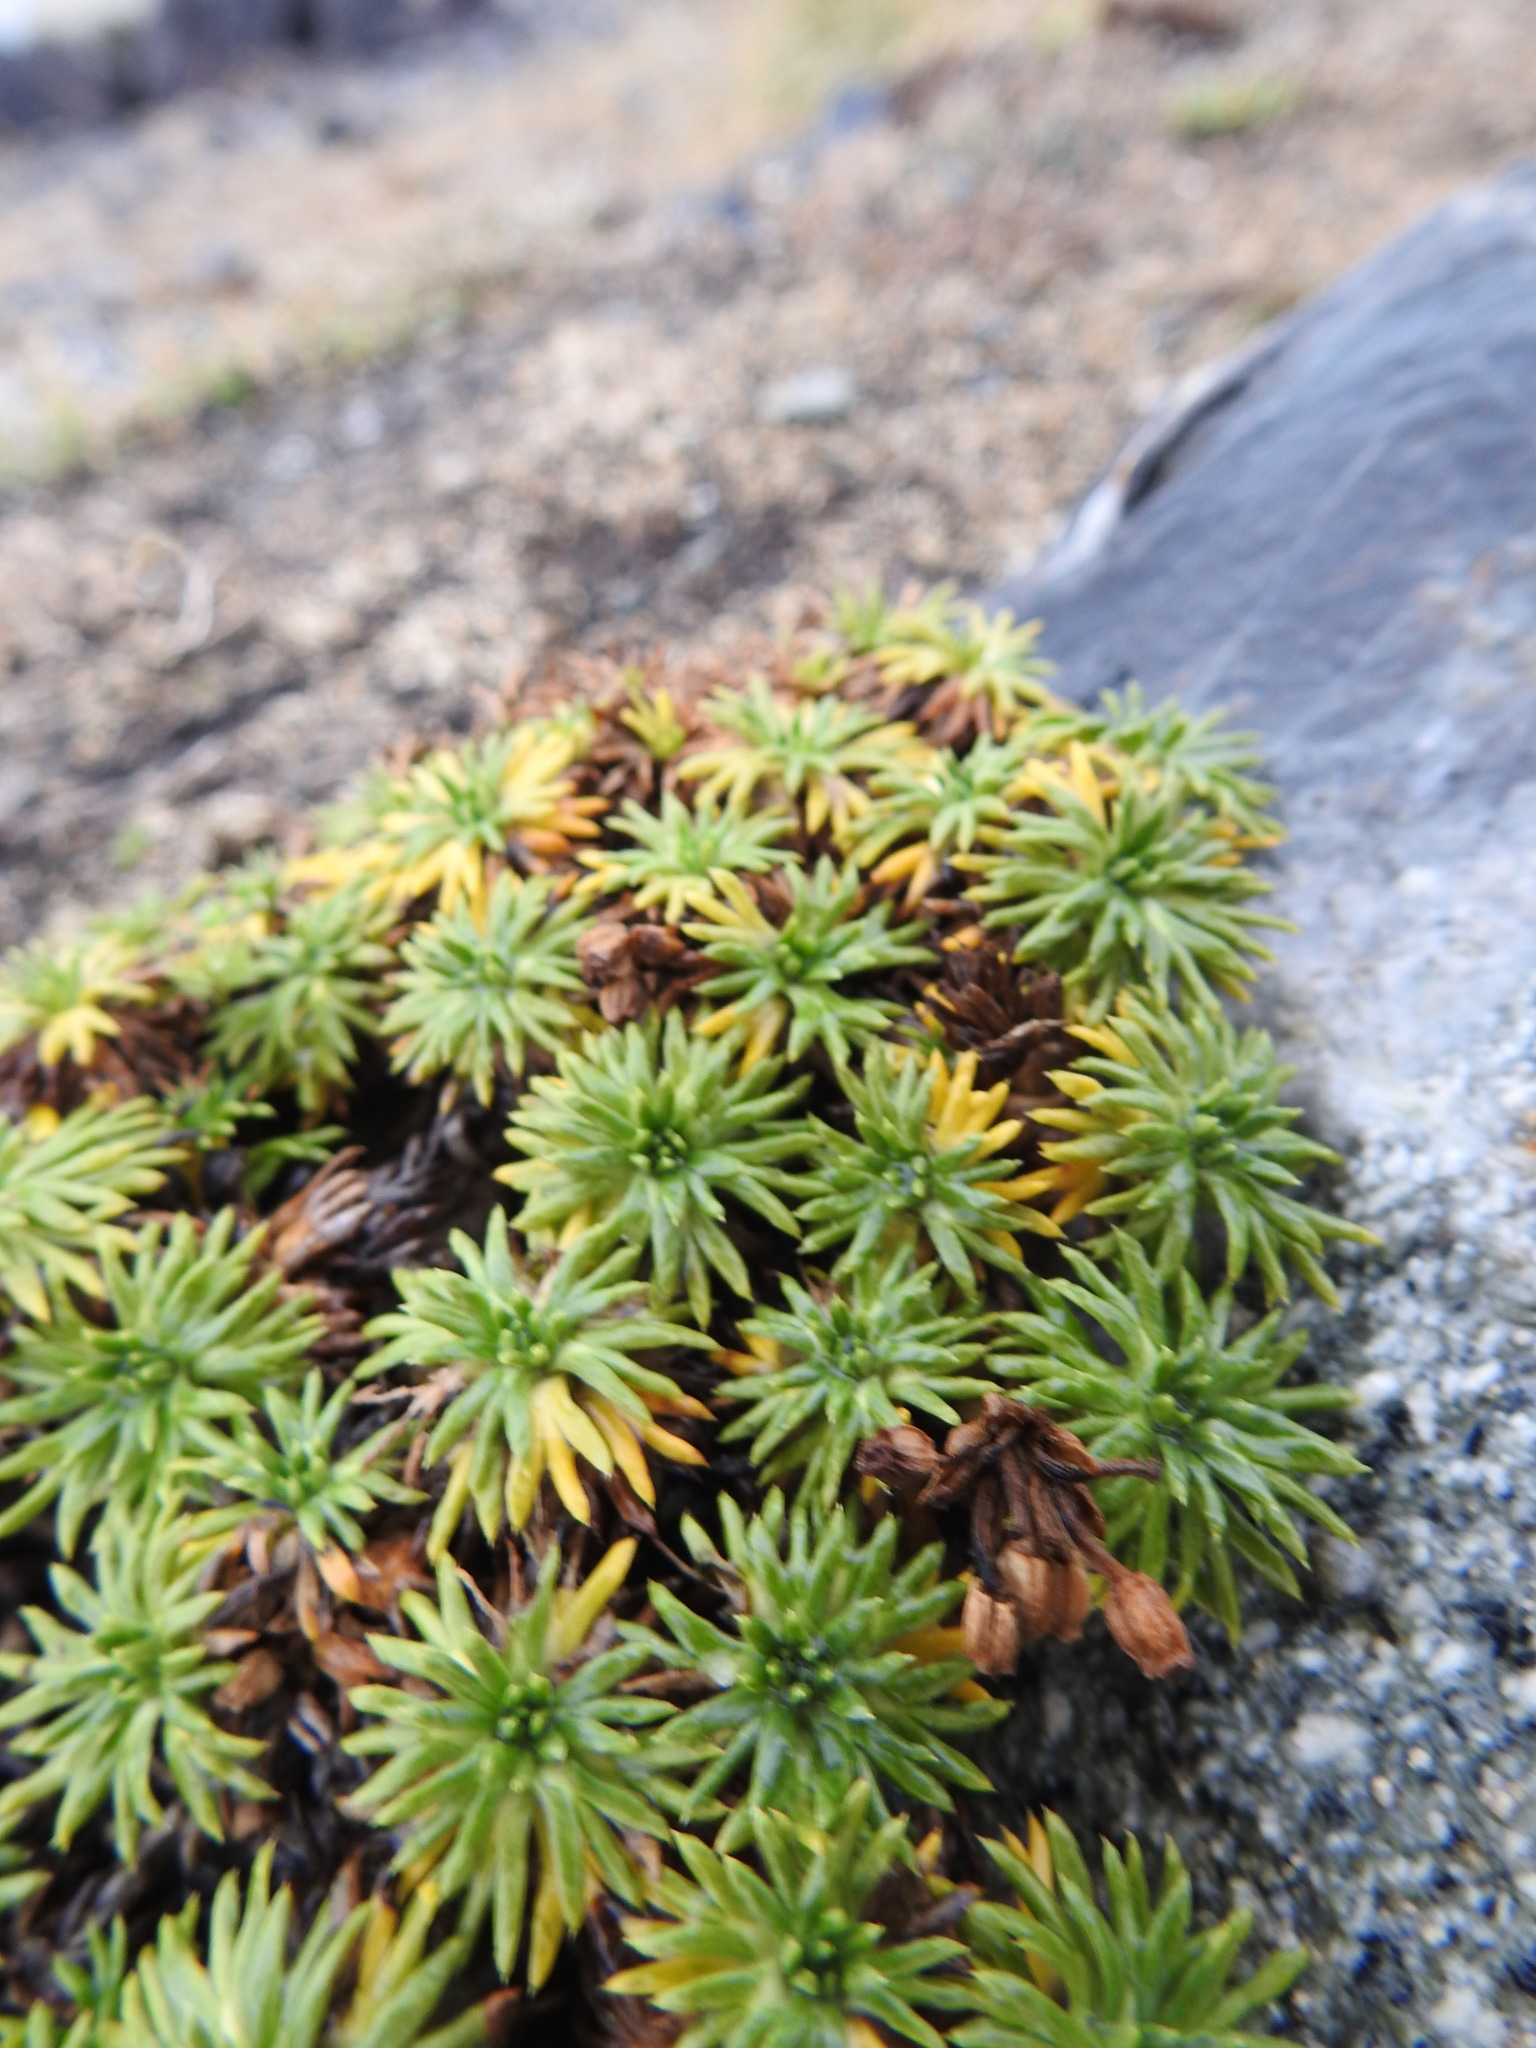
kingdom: Plantae
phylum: Tracheophyta
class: Magnoliopsida
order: Apiales
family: Apiaceae
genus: Azorella
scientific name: Azorella trifurcata
